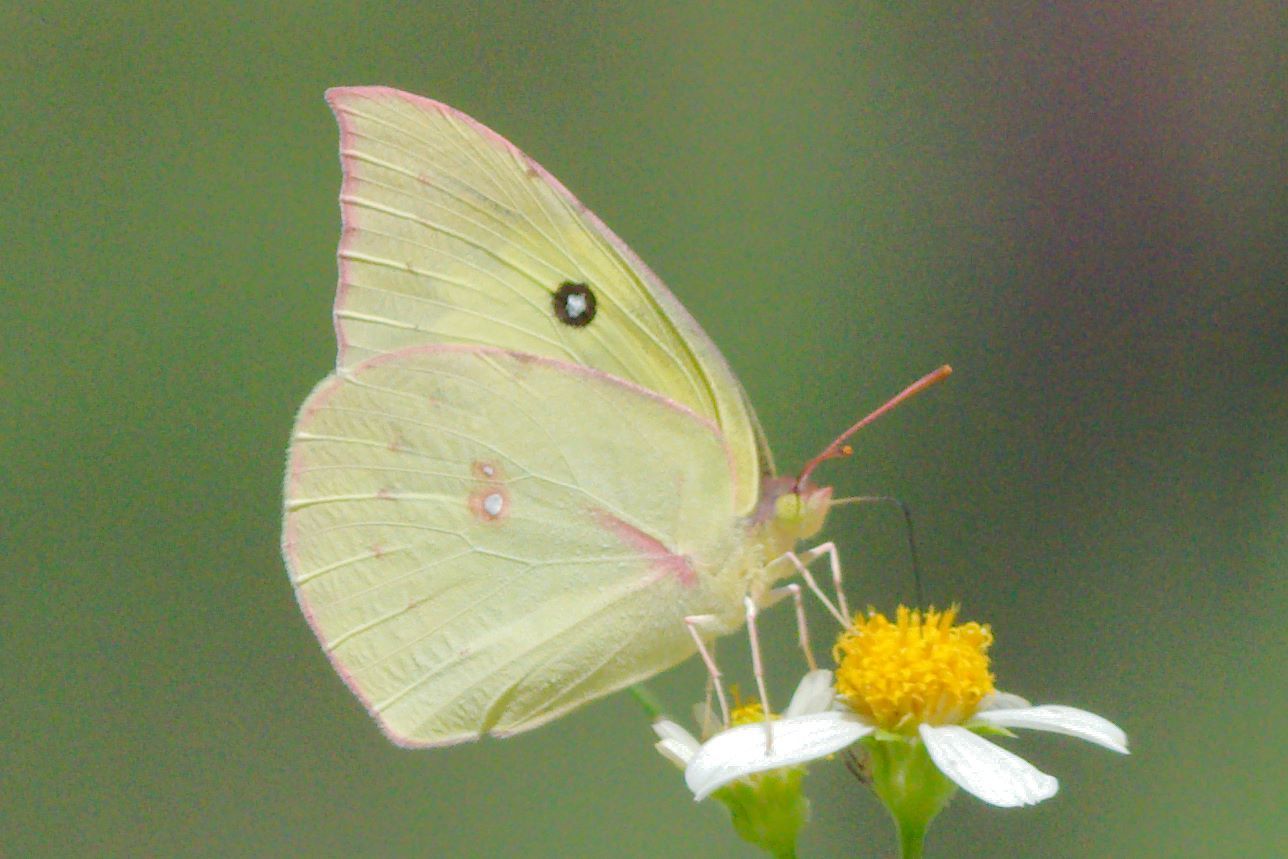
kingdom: Animalia
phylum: Arthropoda
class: Insecta
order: Lepidoptera
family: Pieridae
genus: Zerene
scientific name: Zerene cesonia
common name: Southern dogface
